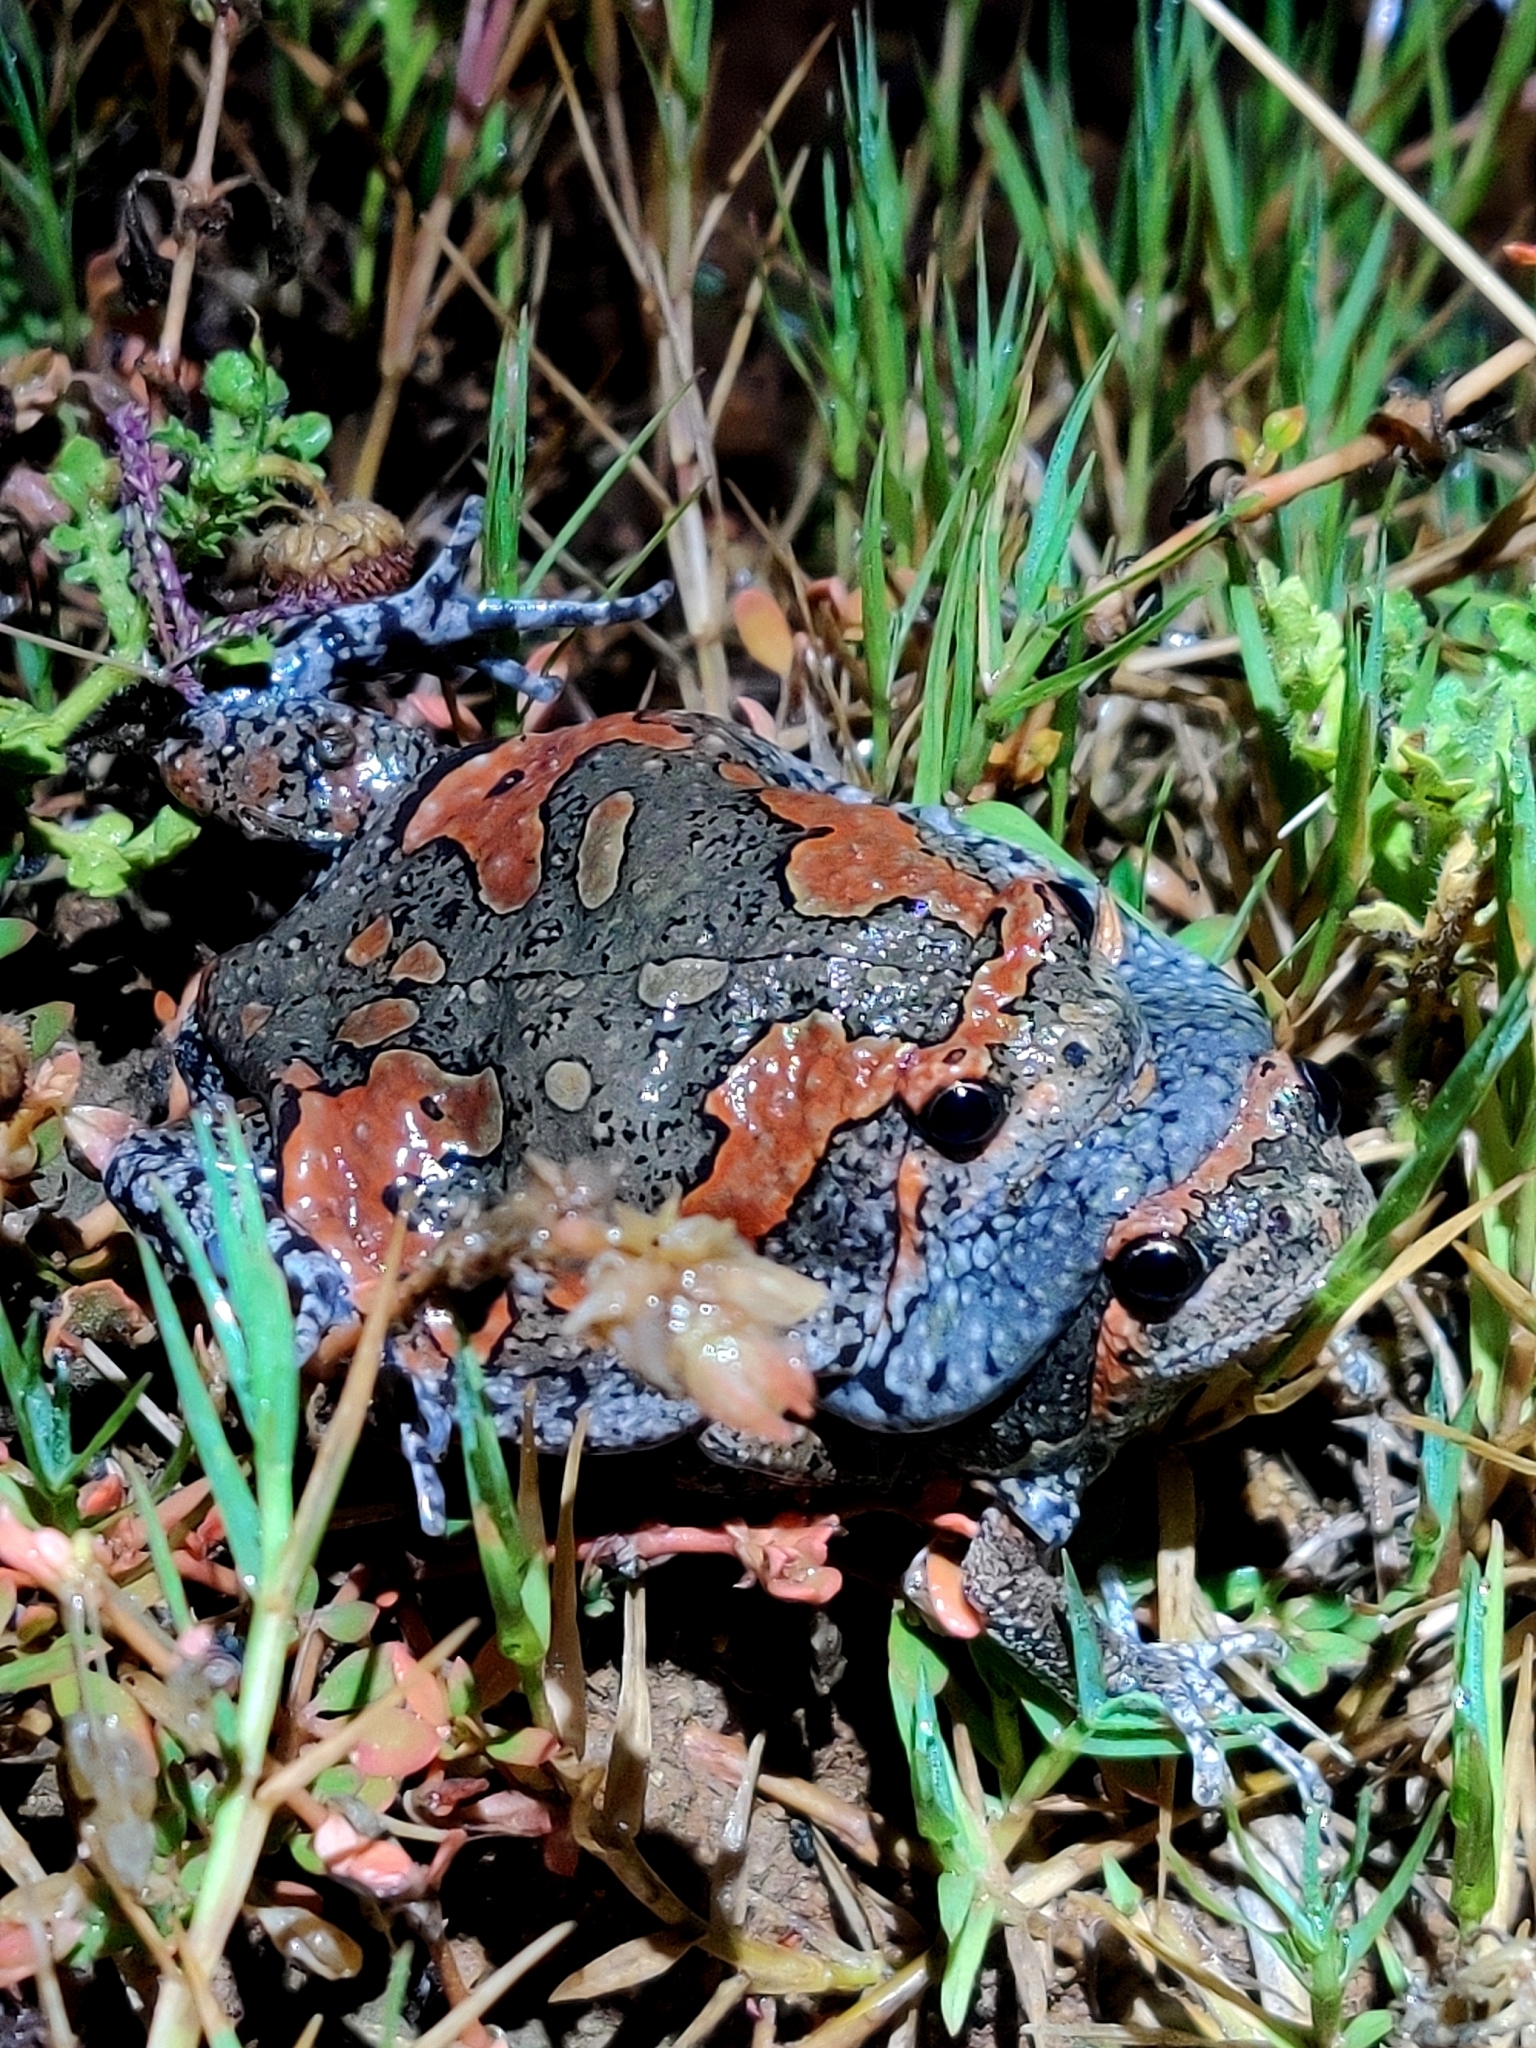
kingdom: Animalia
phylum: Chordata
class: Amphibia
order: Anura
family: Microhylidae
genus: Uperodon
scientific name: Uperodon taprobanicus
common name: Ceylon kaloula
